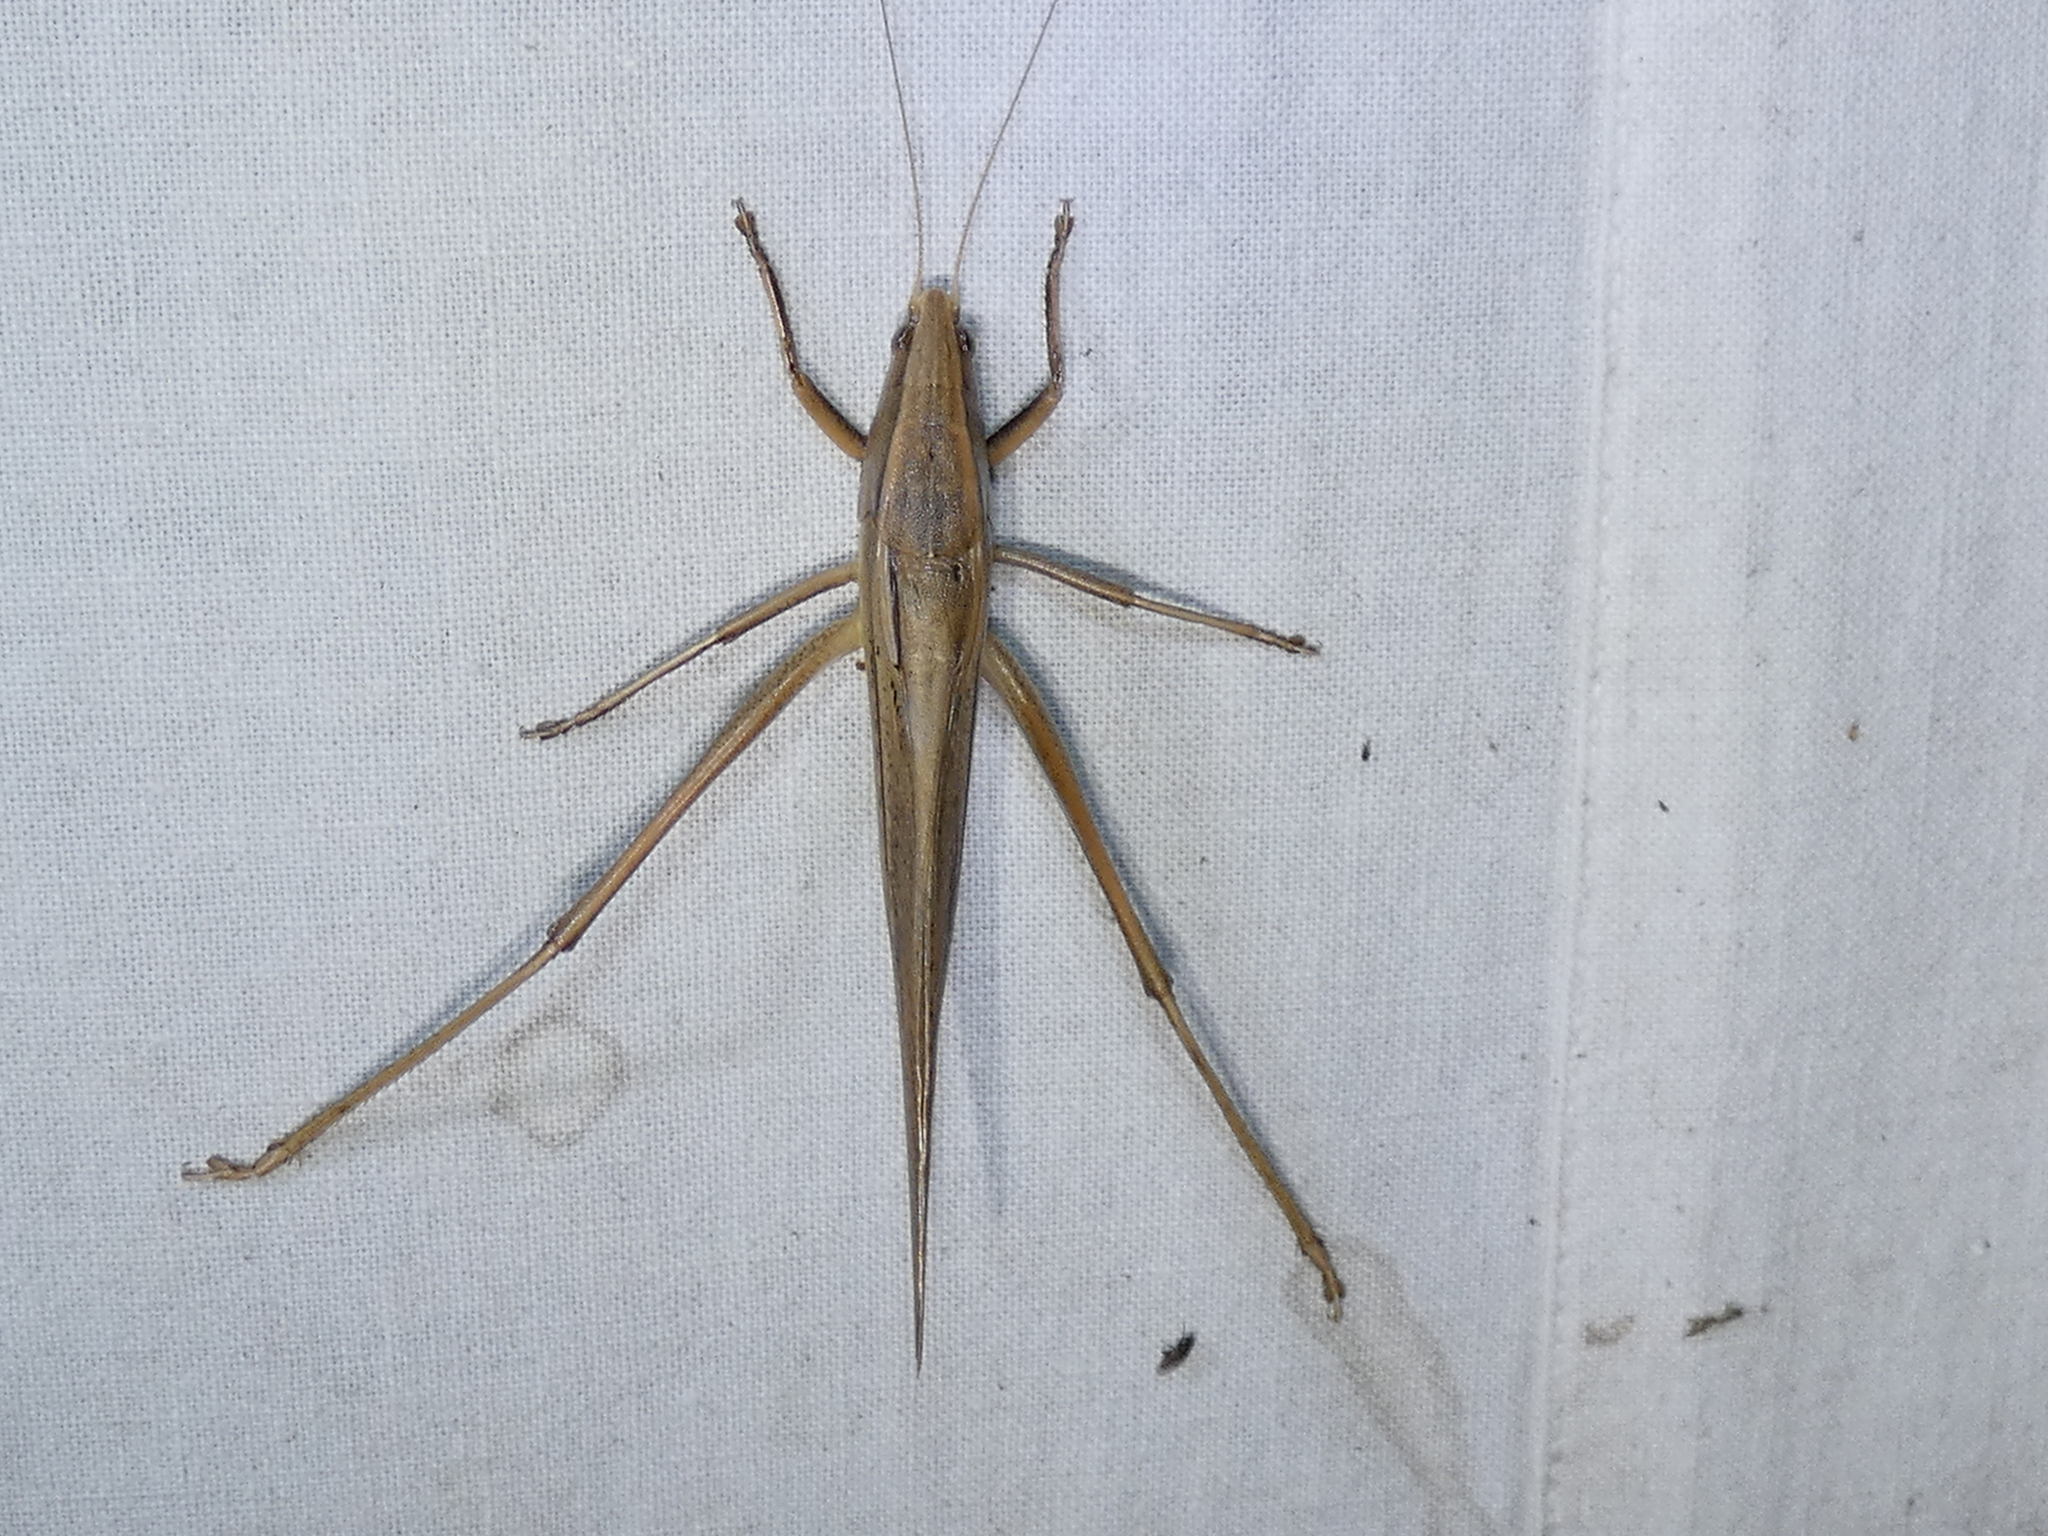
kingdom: Animalia
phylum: Arthropoda
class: Insecta
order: Orthoptera
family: Tettigoniidae
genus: Neoconocephalus
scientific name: Neoconocephalus triops
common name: Broad-tipped conehead
